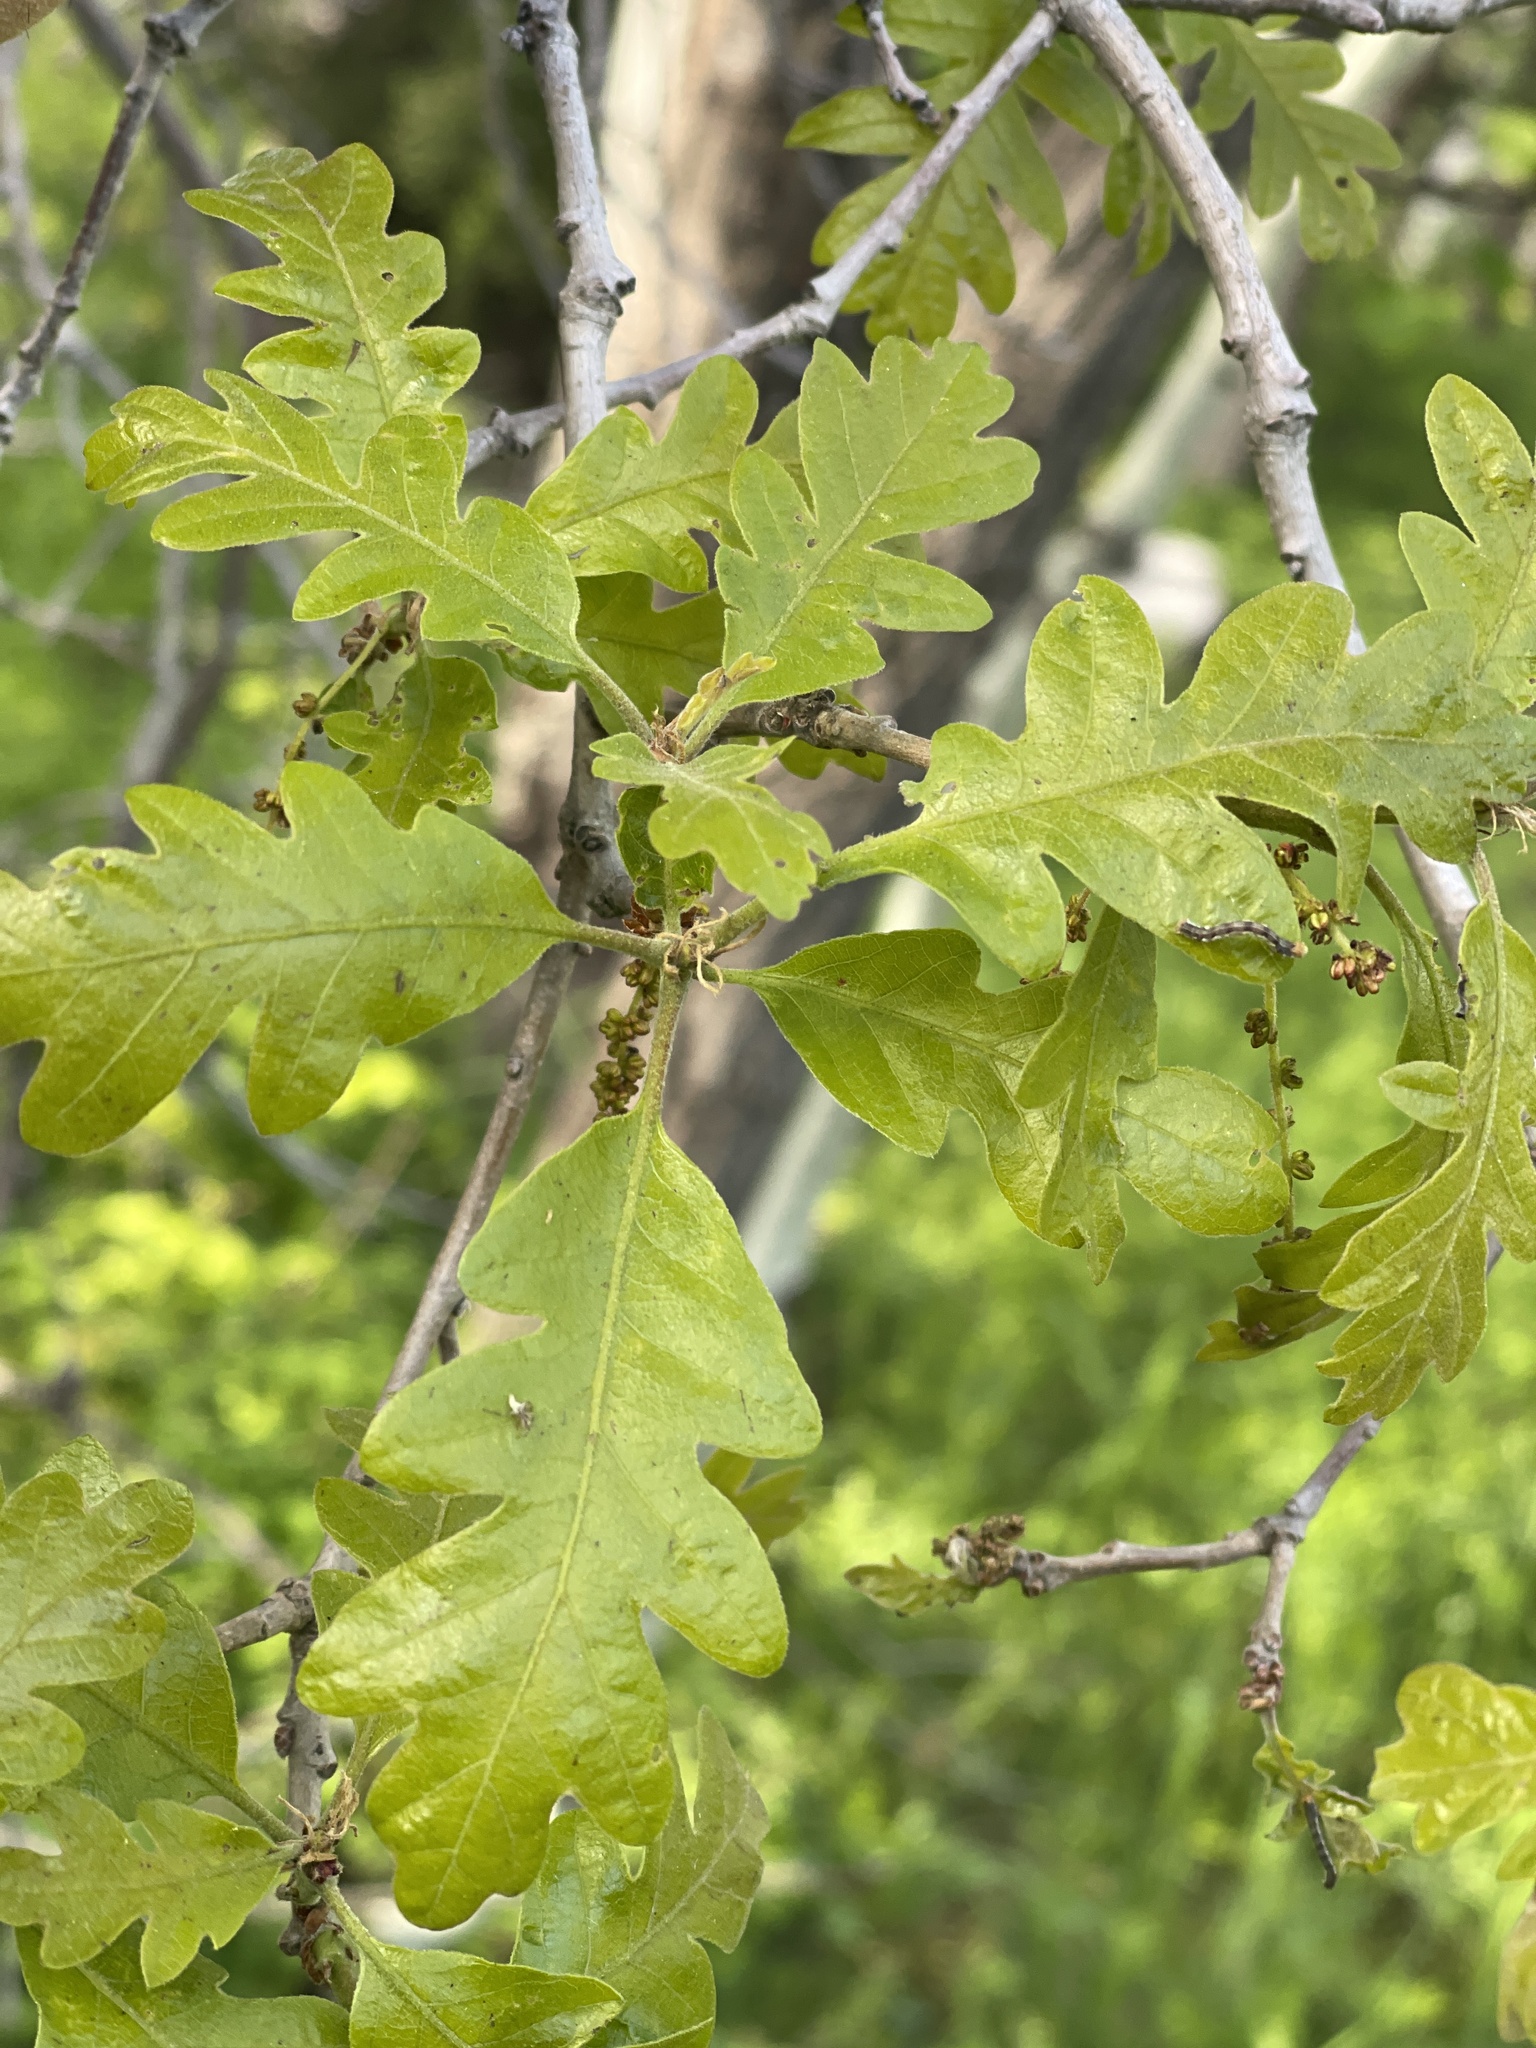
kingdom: Plantae
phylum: Tracheophyta
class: Magnoliopsida
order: Fagales
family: Fagaceae
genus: Quercus
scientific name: Quercus gambelii
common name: Gambel oak
